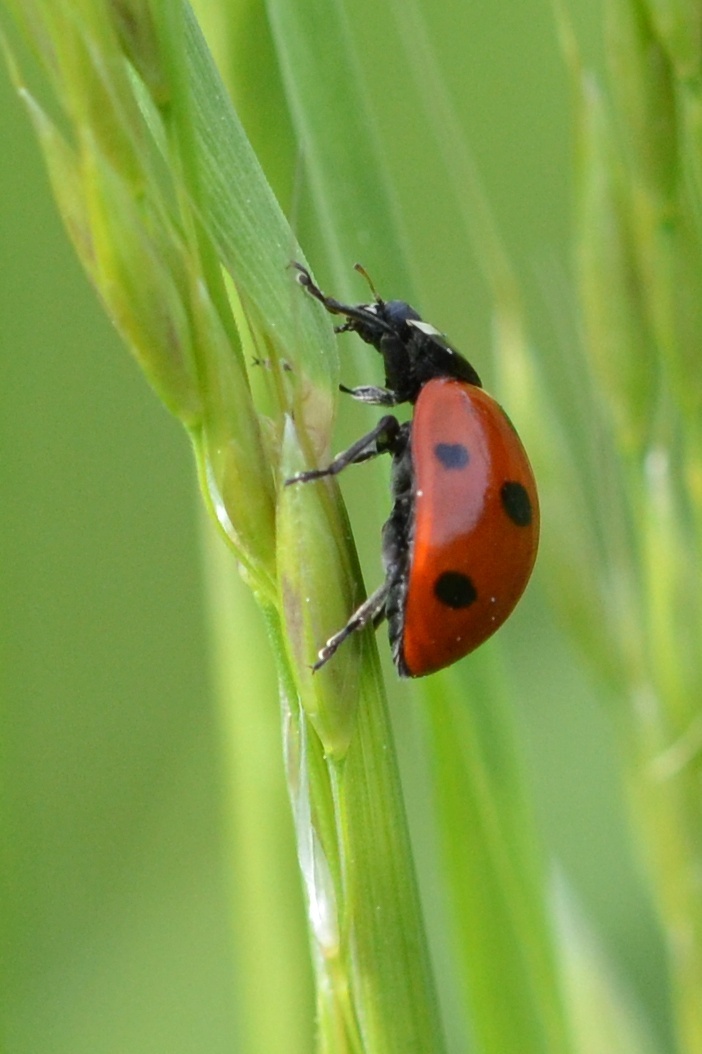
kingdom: Animalia
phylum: Arthropoda
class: Insecta
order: Coleoptera
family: Coccinellidae
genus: Coccinella
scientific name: Coccinella septempunctata
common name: Sevenspotted lady beetle
